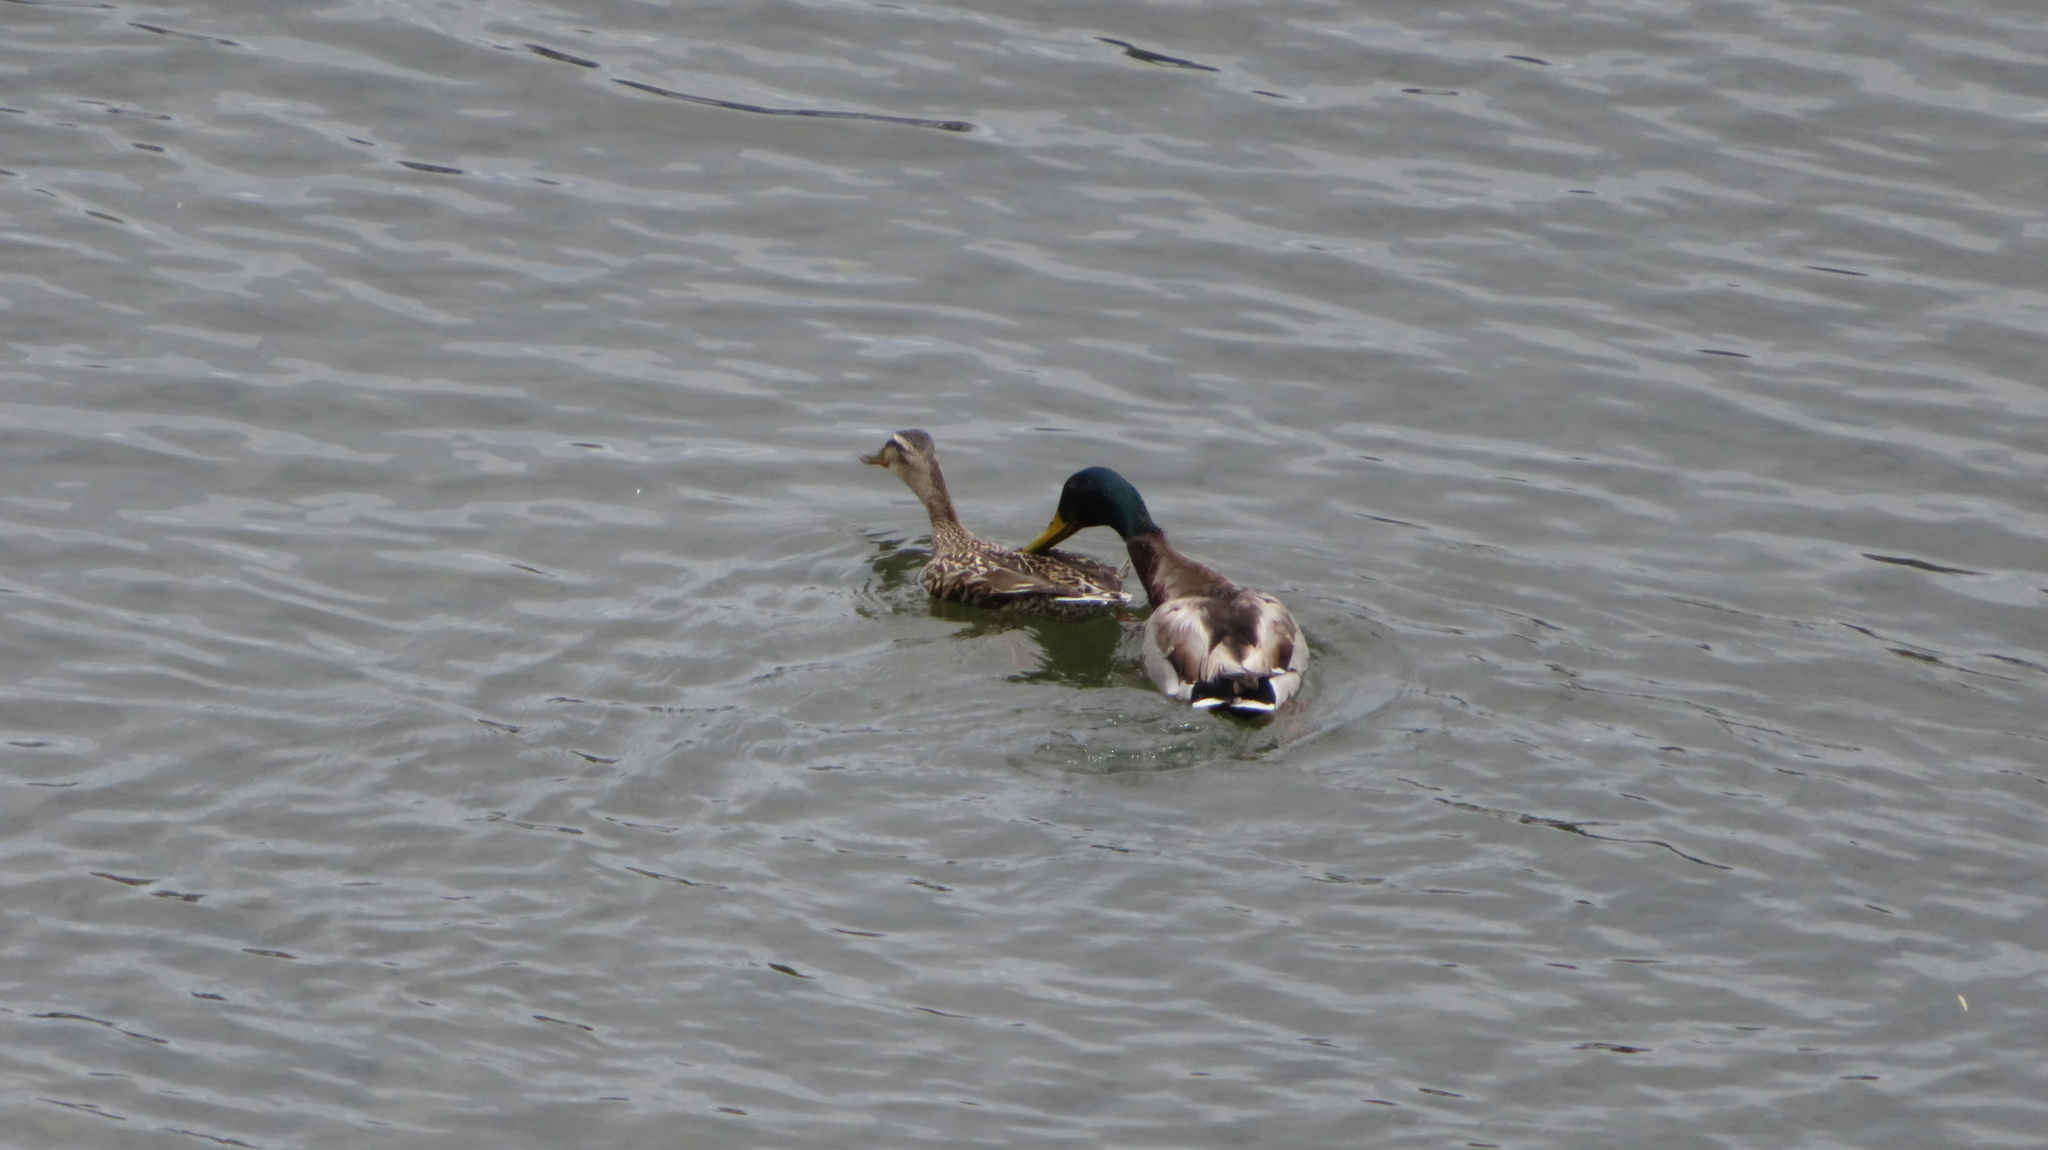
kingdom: Animalia
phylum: Chordata
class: Aves
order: Anseriformes
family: Anatidae
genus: Anas
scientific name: Anas platyrhynchos
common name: Mallard
